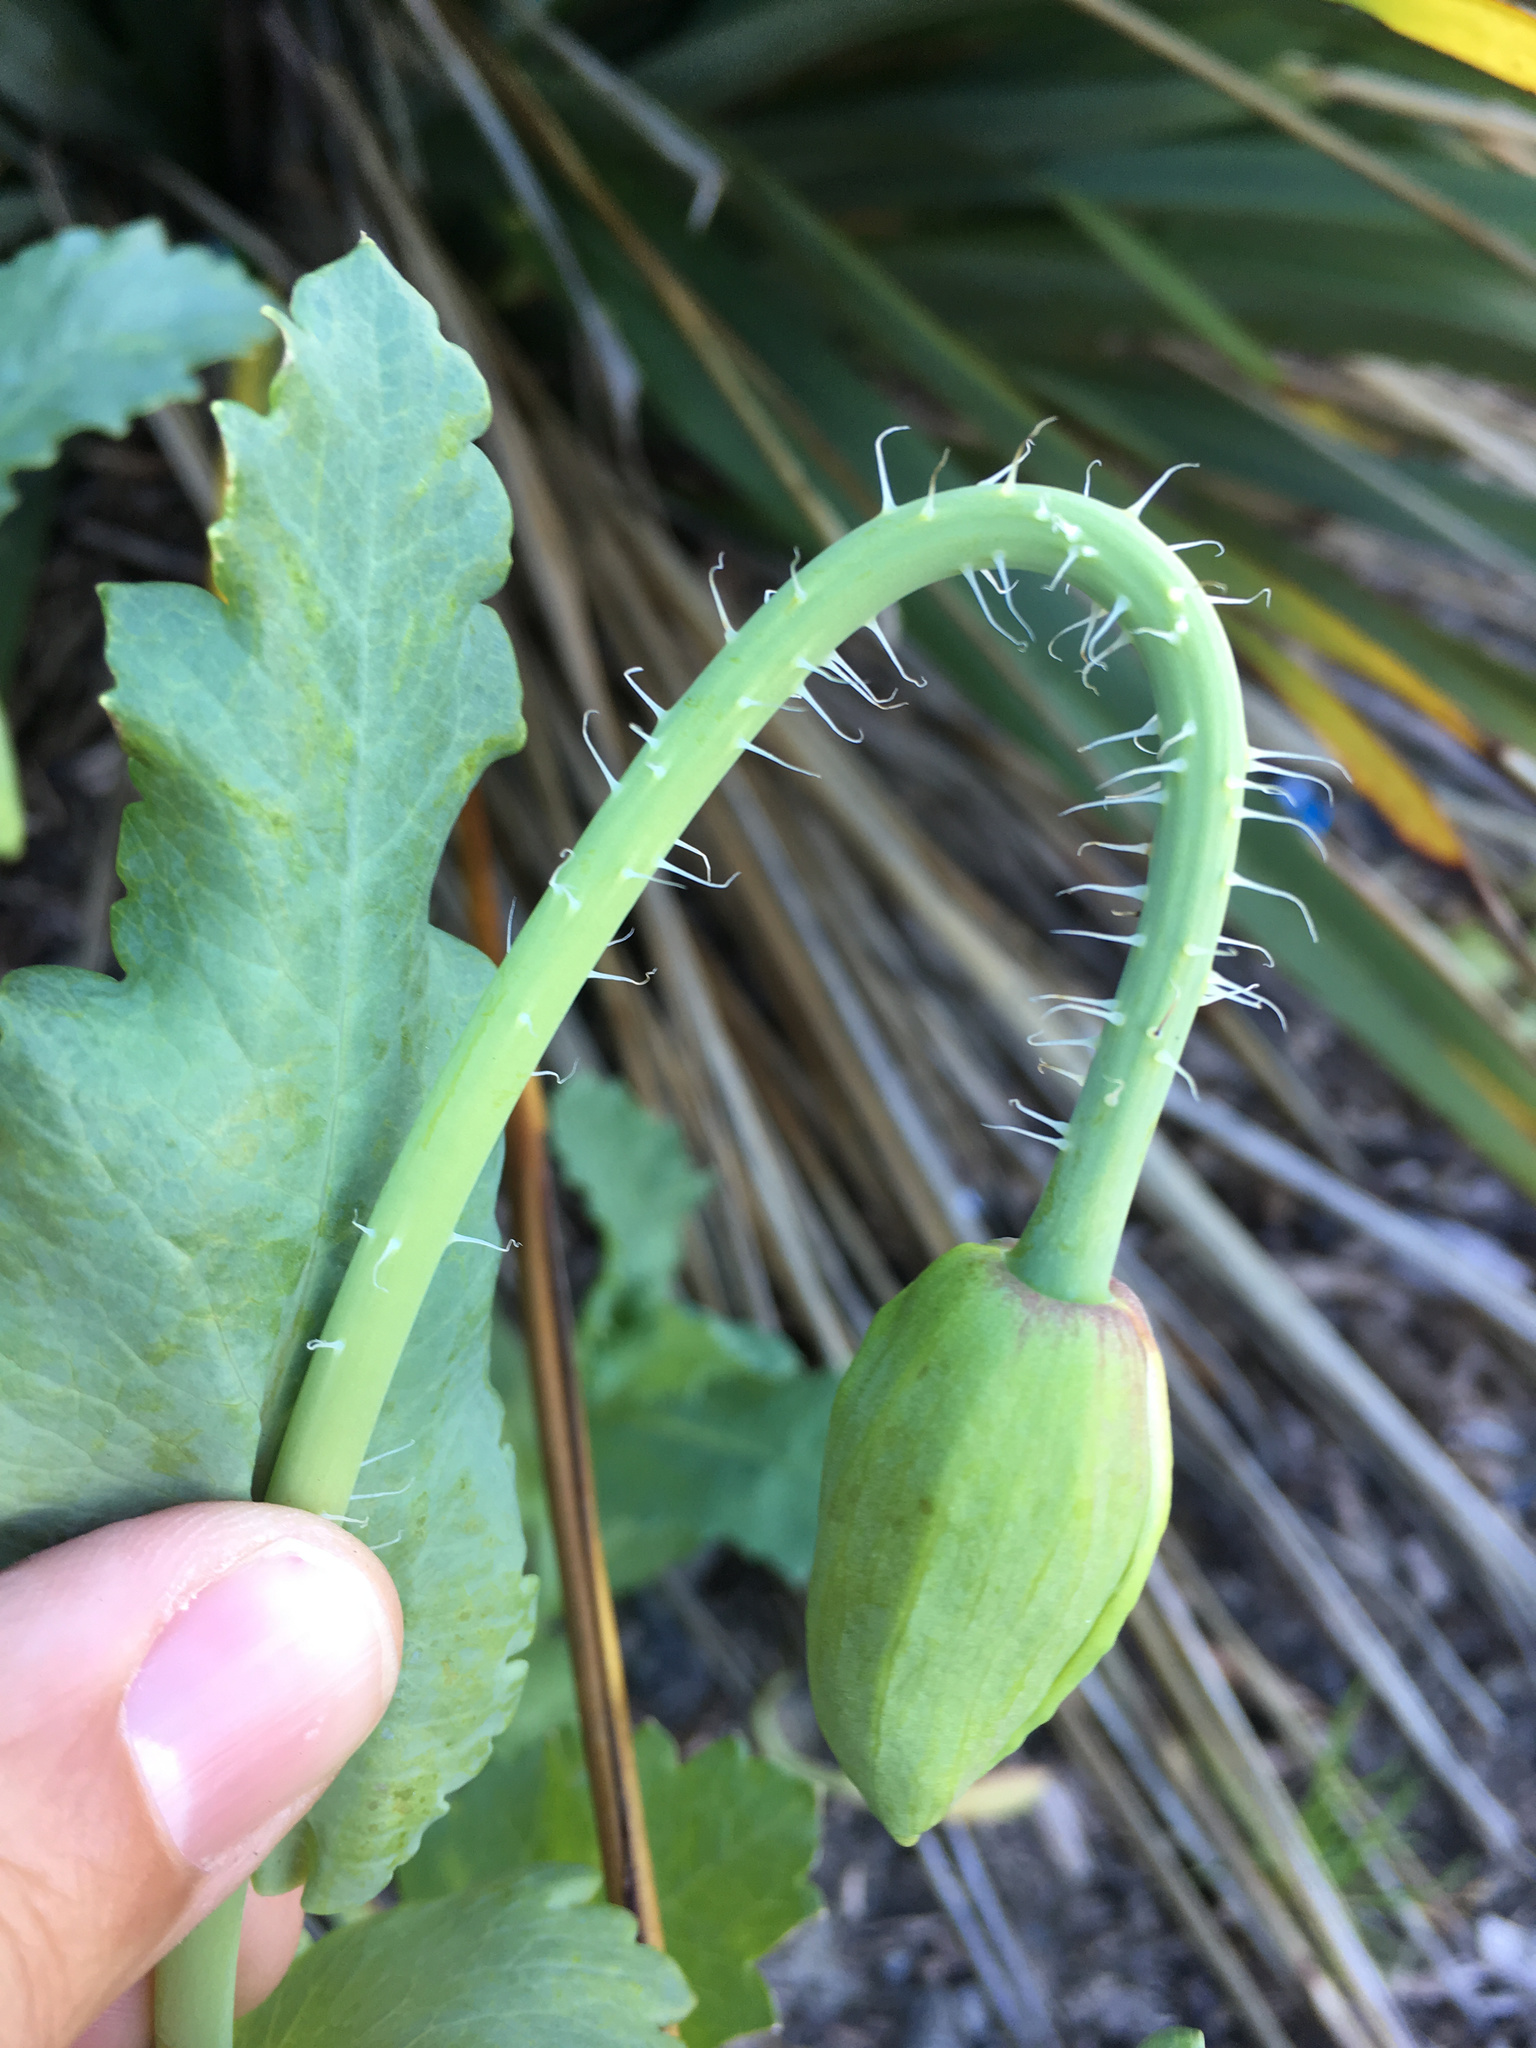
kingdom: Plantae
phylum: Tracheophyta
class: Magnoliopsida
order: Ranunculales
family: Papaveraceae
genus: Papaver
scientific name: Papaver somniferum
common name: Opium poppy
